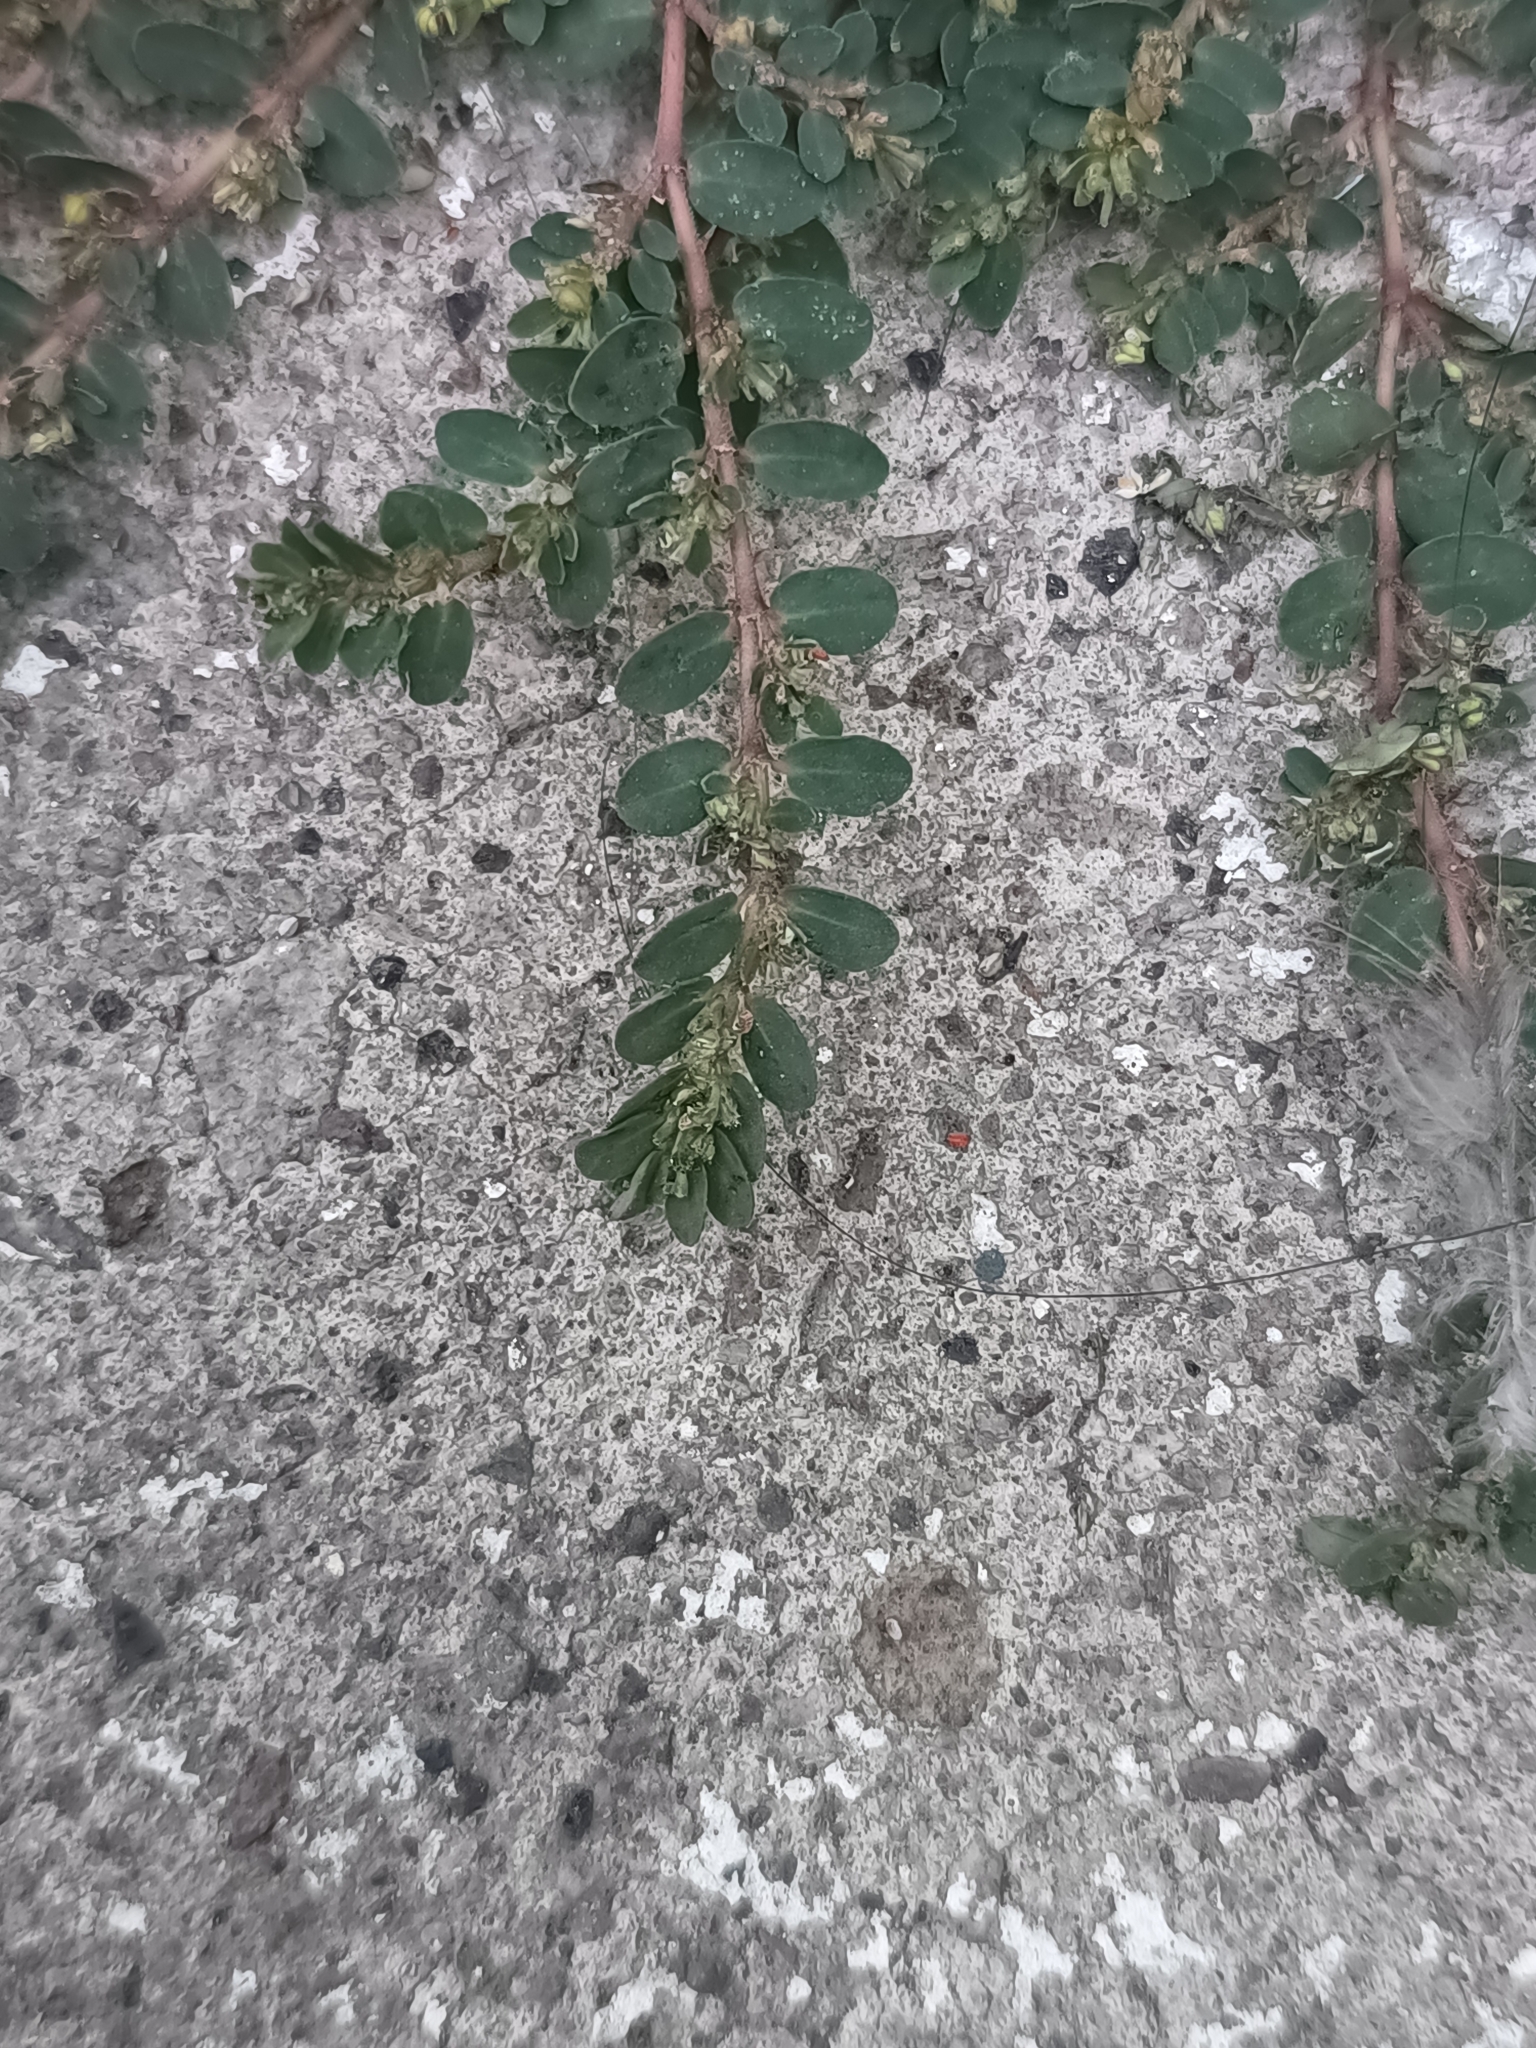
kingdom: Plantae
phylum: Tracheophyta
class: Magnoliopsida
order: Malpighiales
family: Euphorbiaceae
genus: Euphorbia
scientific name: Euphorbia prostrata
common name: Prostrate sandmat
